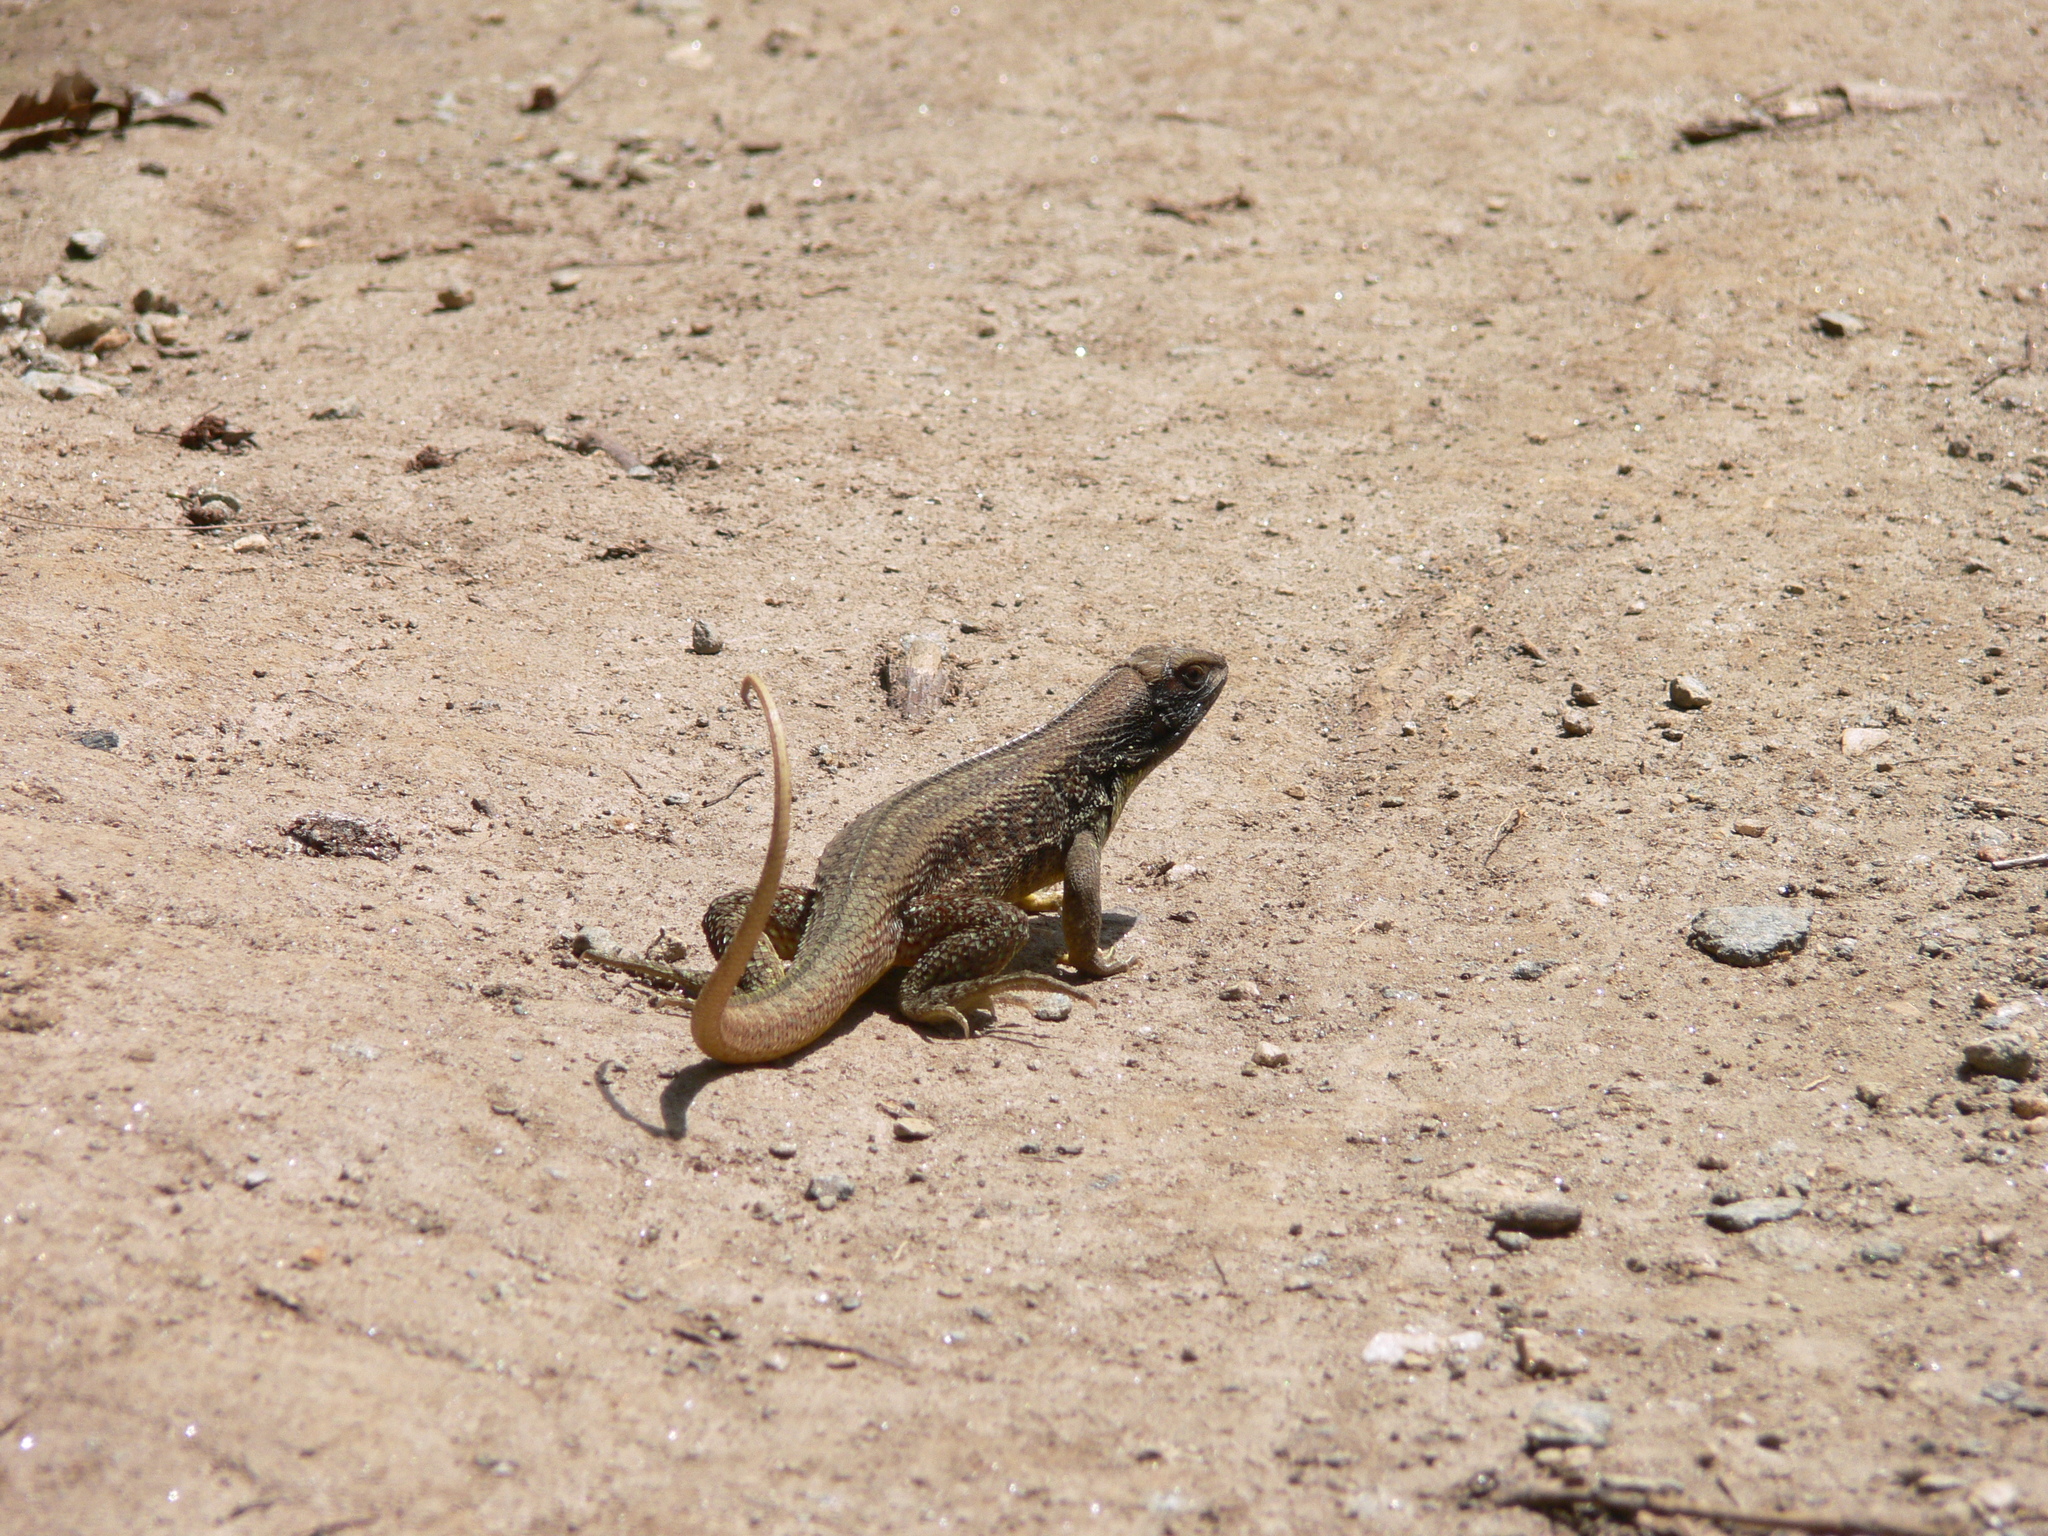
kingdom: Animalia
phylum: Chordata
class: Squamata
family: Leiocephalidae
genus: Leiocephalus
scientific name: Leiocephalus cubensis
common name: Cuban curlytail lizard
